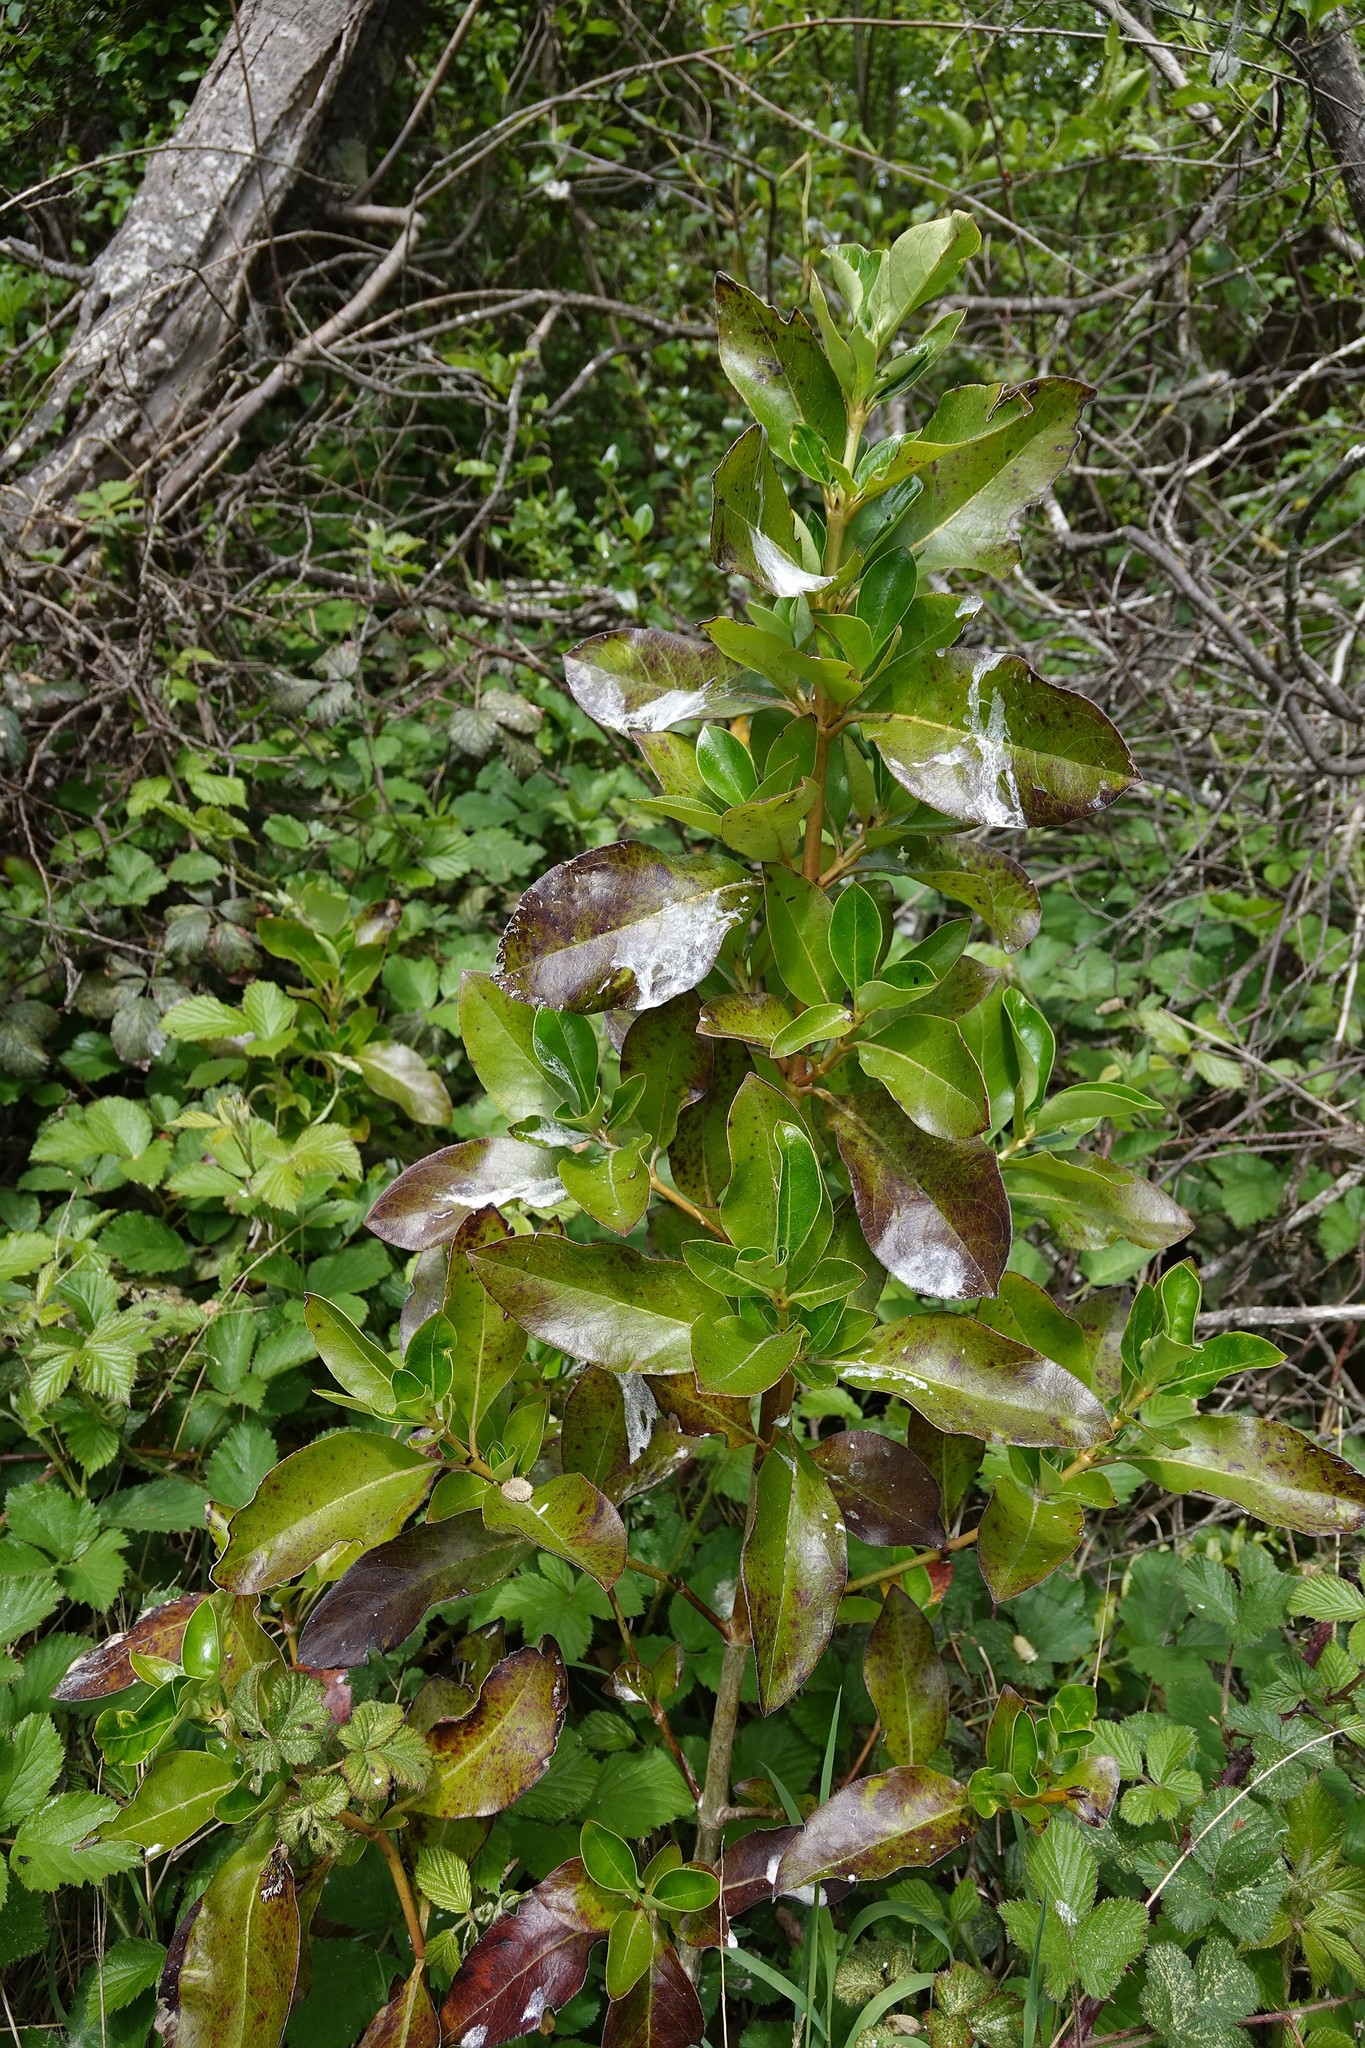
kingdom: Plantae
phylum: Tracheophyta
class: Magnoliopsida
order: Gentianales
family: Rubiaceae
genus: Coprosma
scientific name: Coprosma robusta
